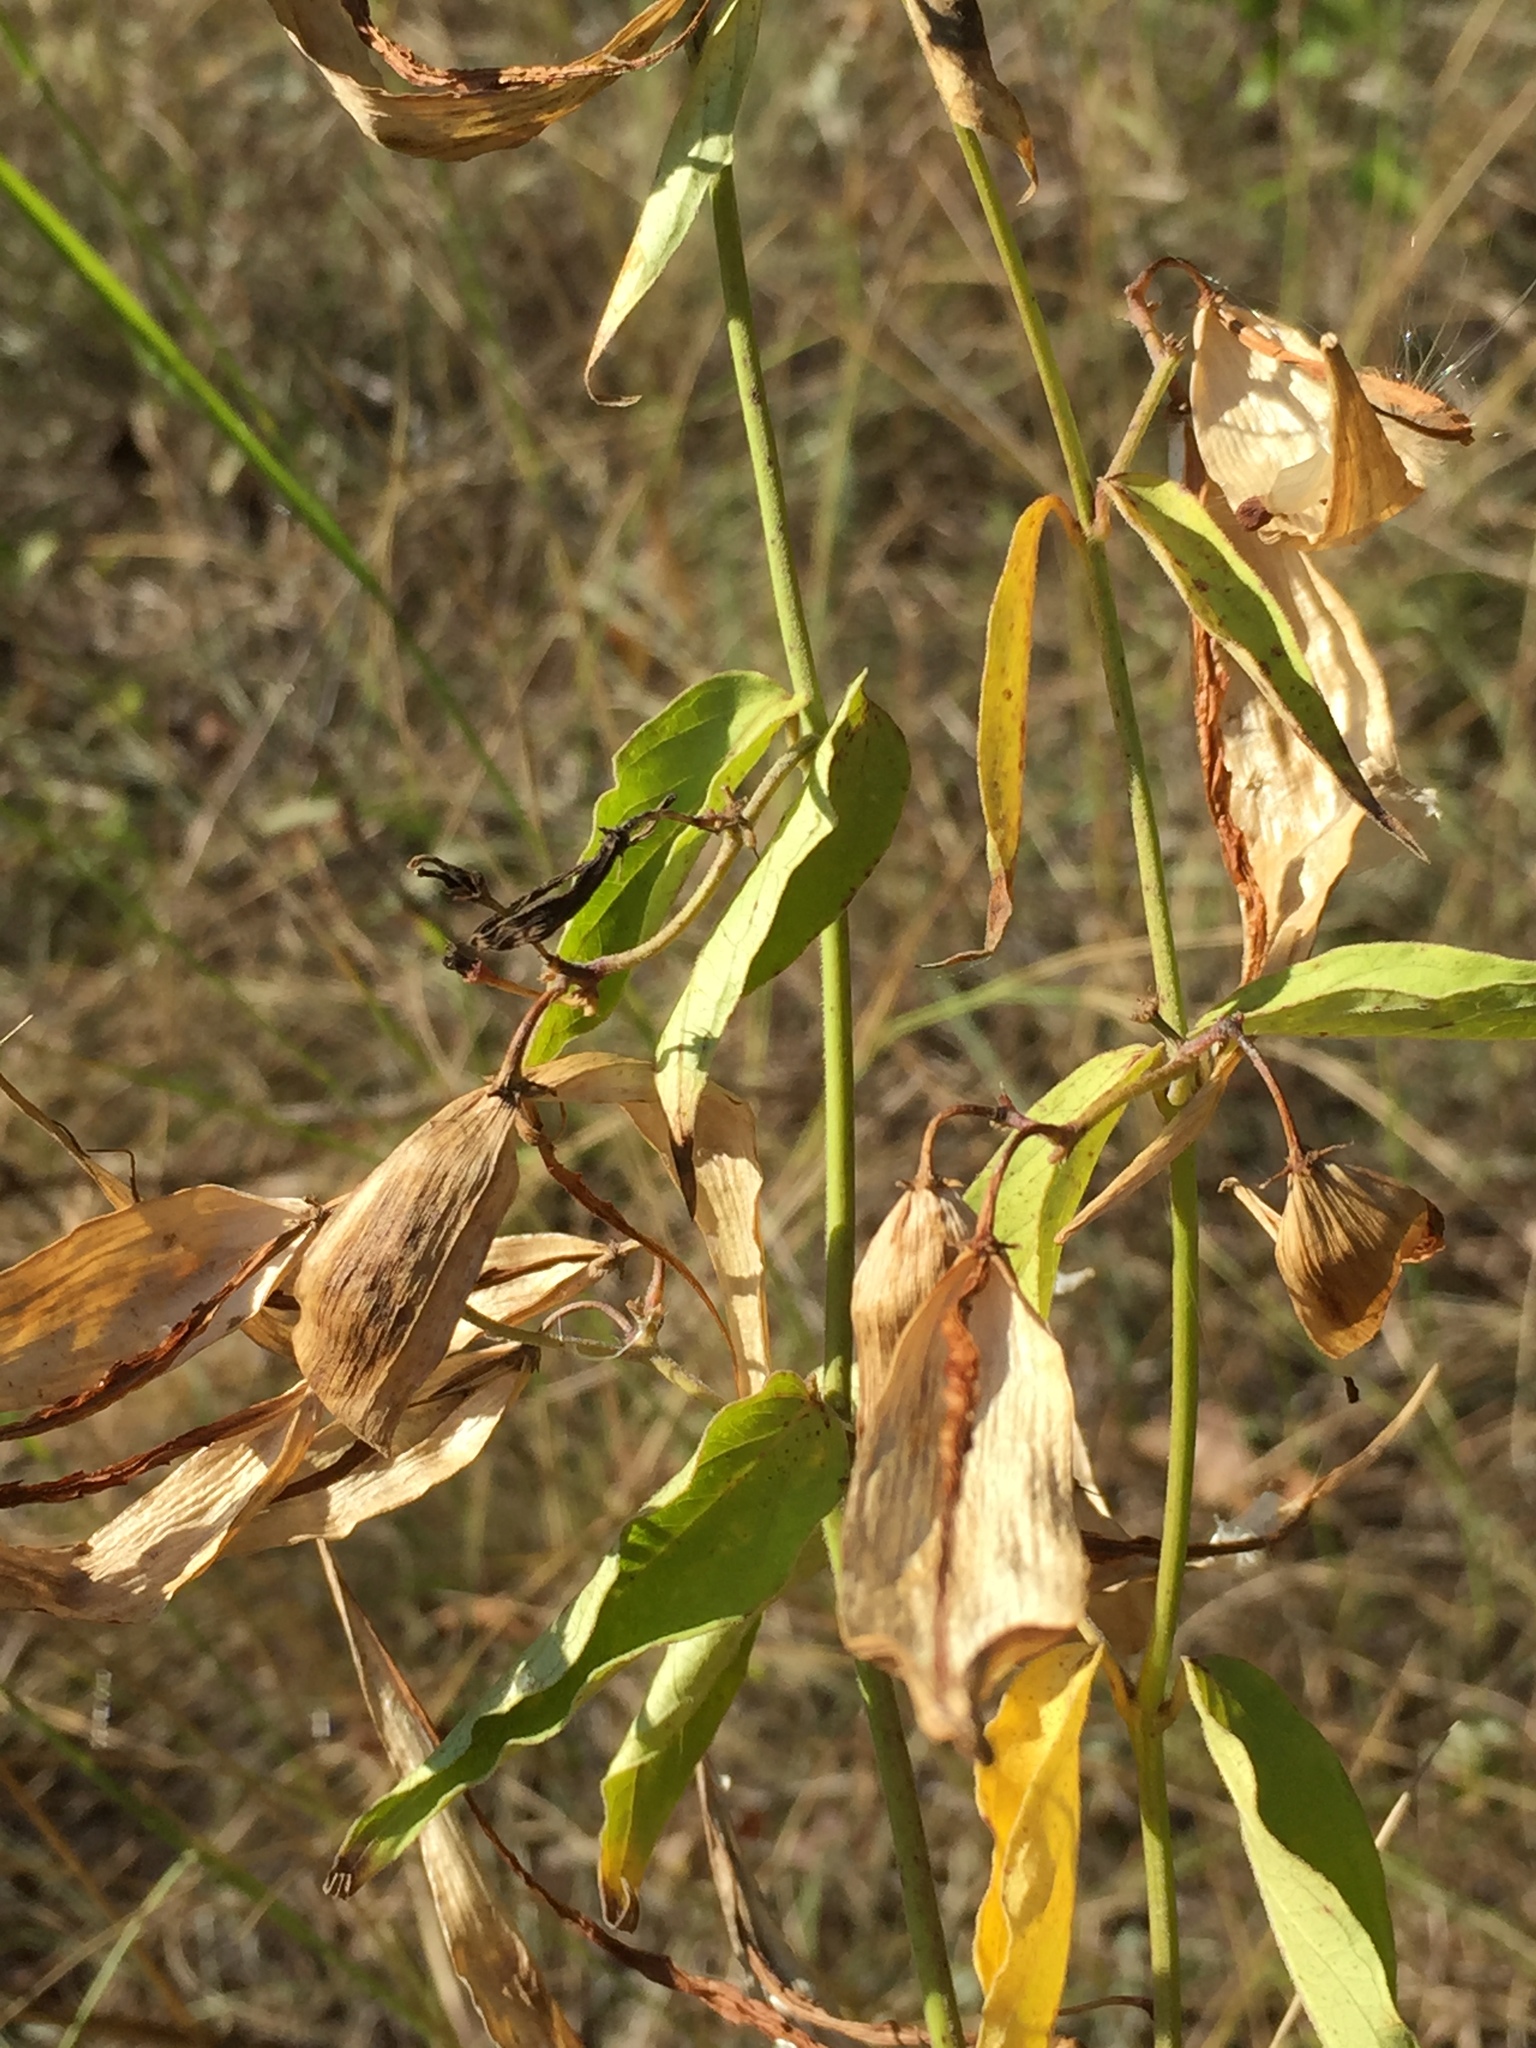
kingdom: Plantae
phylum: Tracheophyta
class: Magnoliopsida
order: Gentianales
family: Apocynaceae
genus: Vincetoxicum
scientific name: Vincetoxicum hirundinaria
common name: White swallowwort
